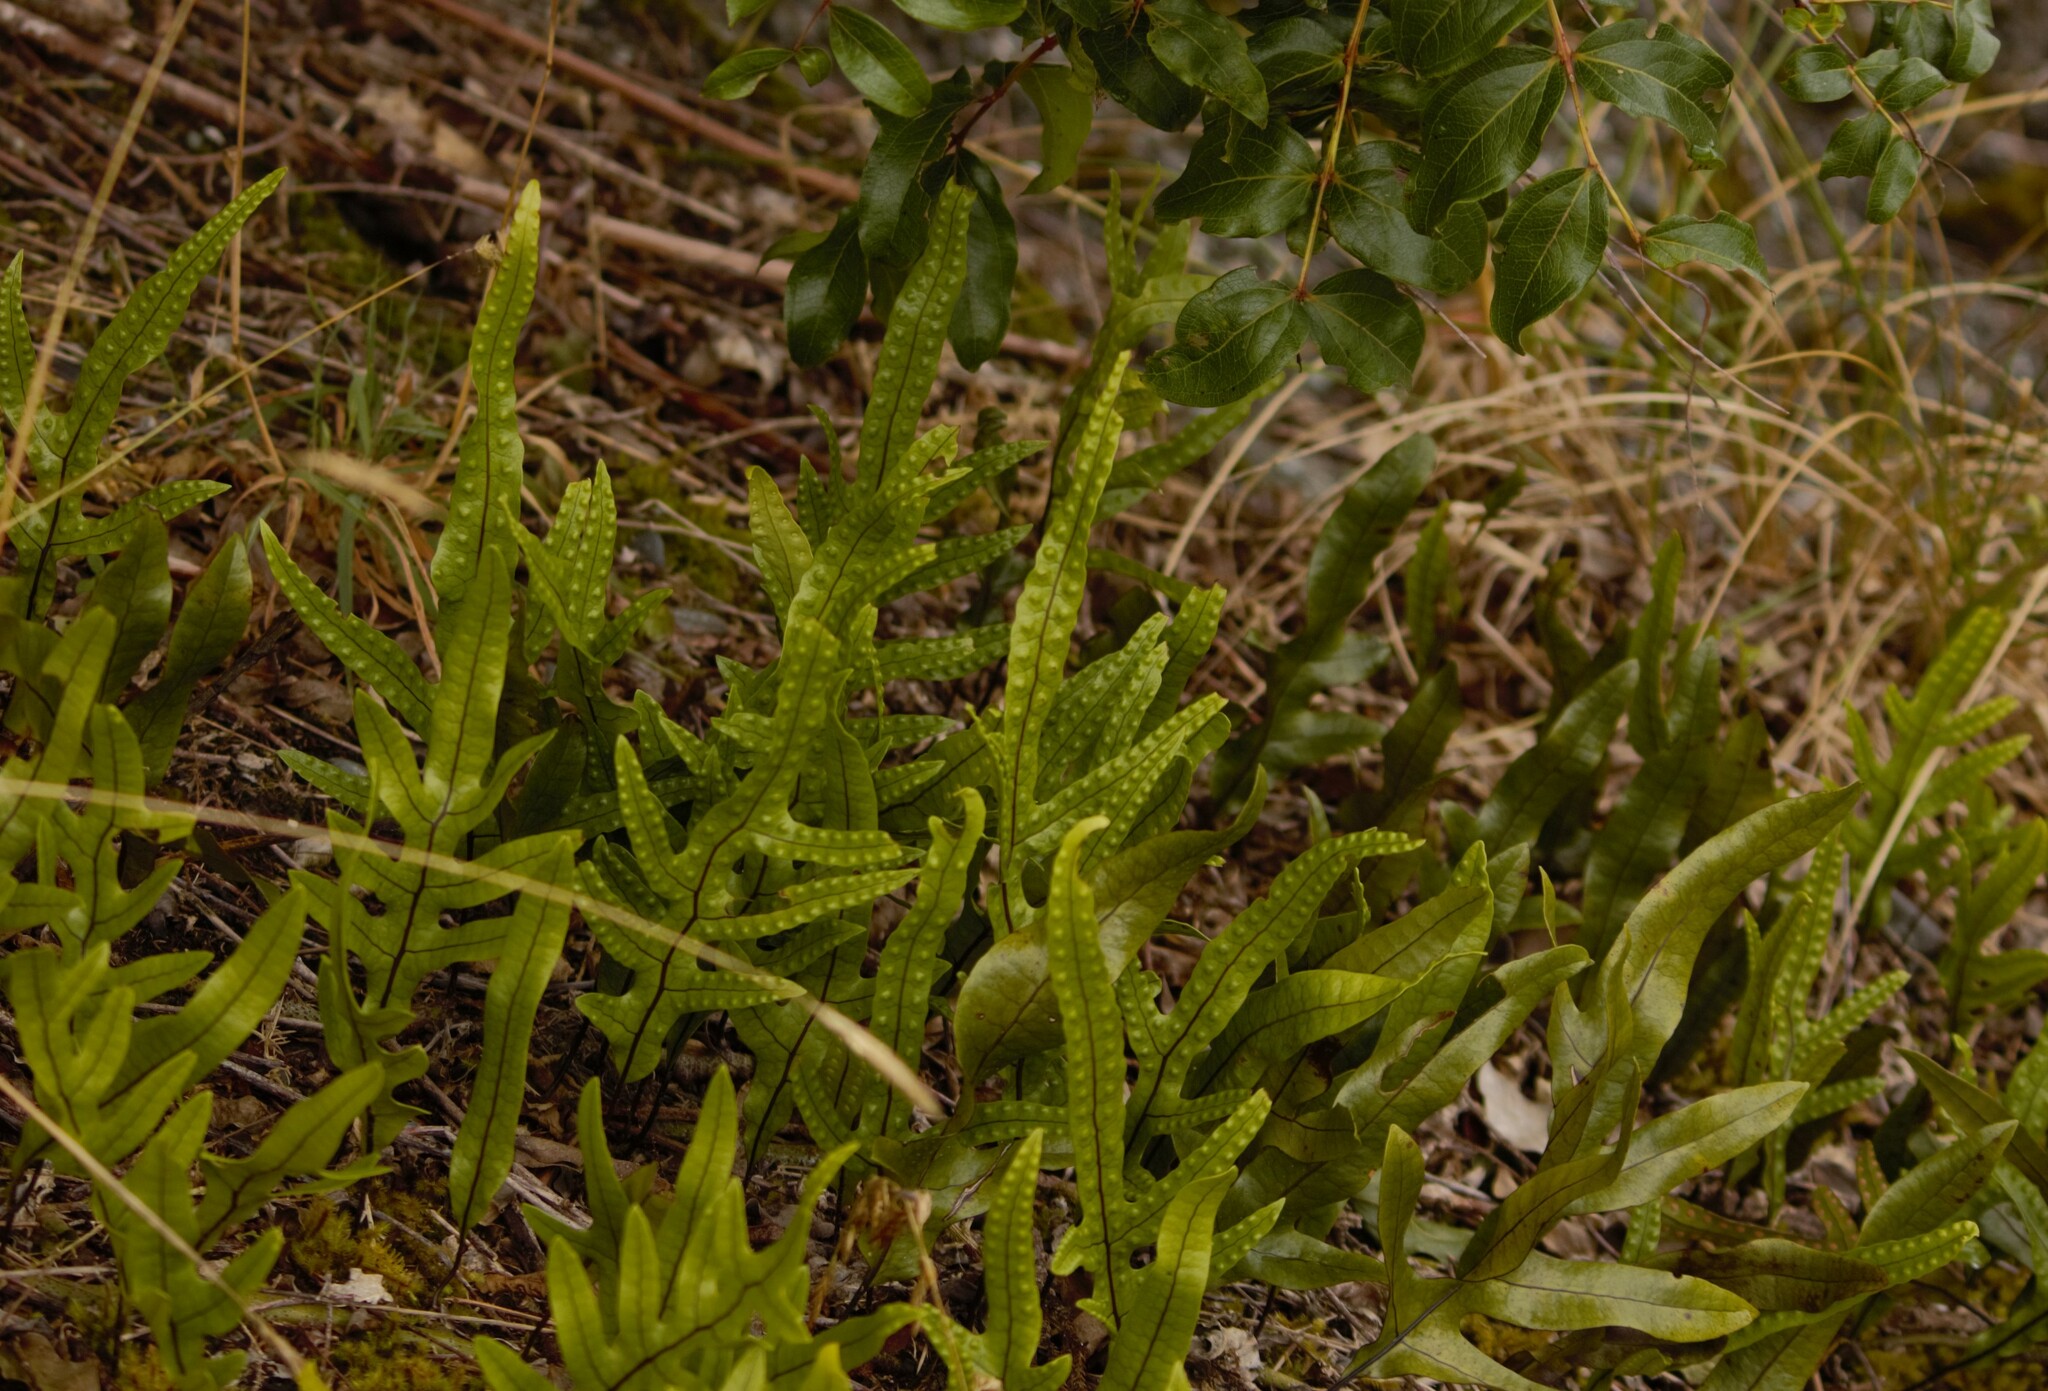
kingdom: Plantae
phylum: Tracheophyta
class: Polypodiopsida
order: Polypodiales
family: Polypodiaceae
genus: Lecanopteris
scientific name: Lecanopteris pustulata
